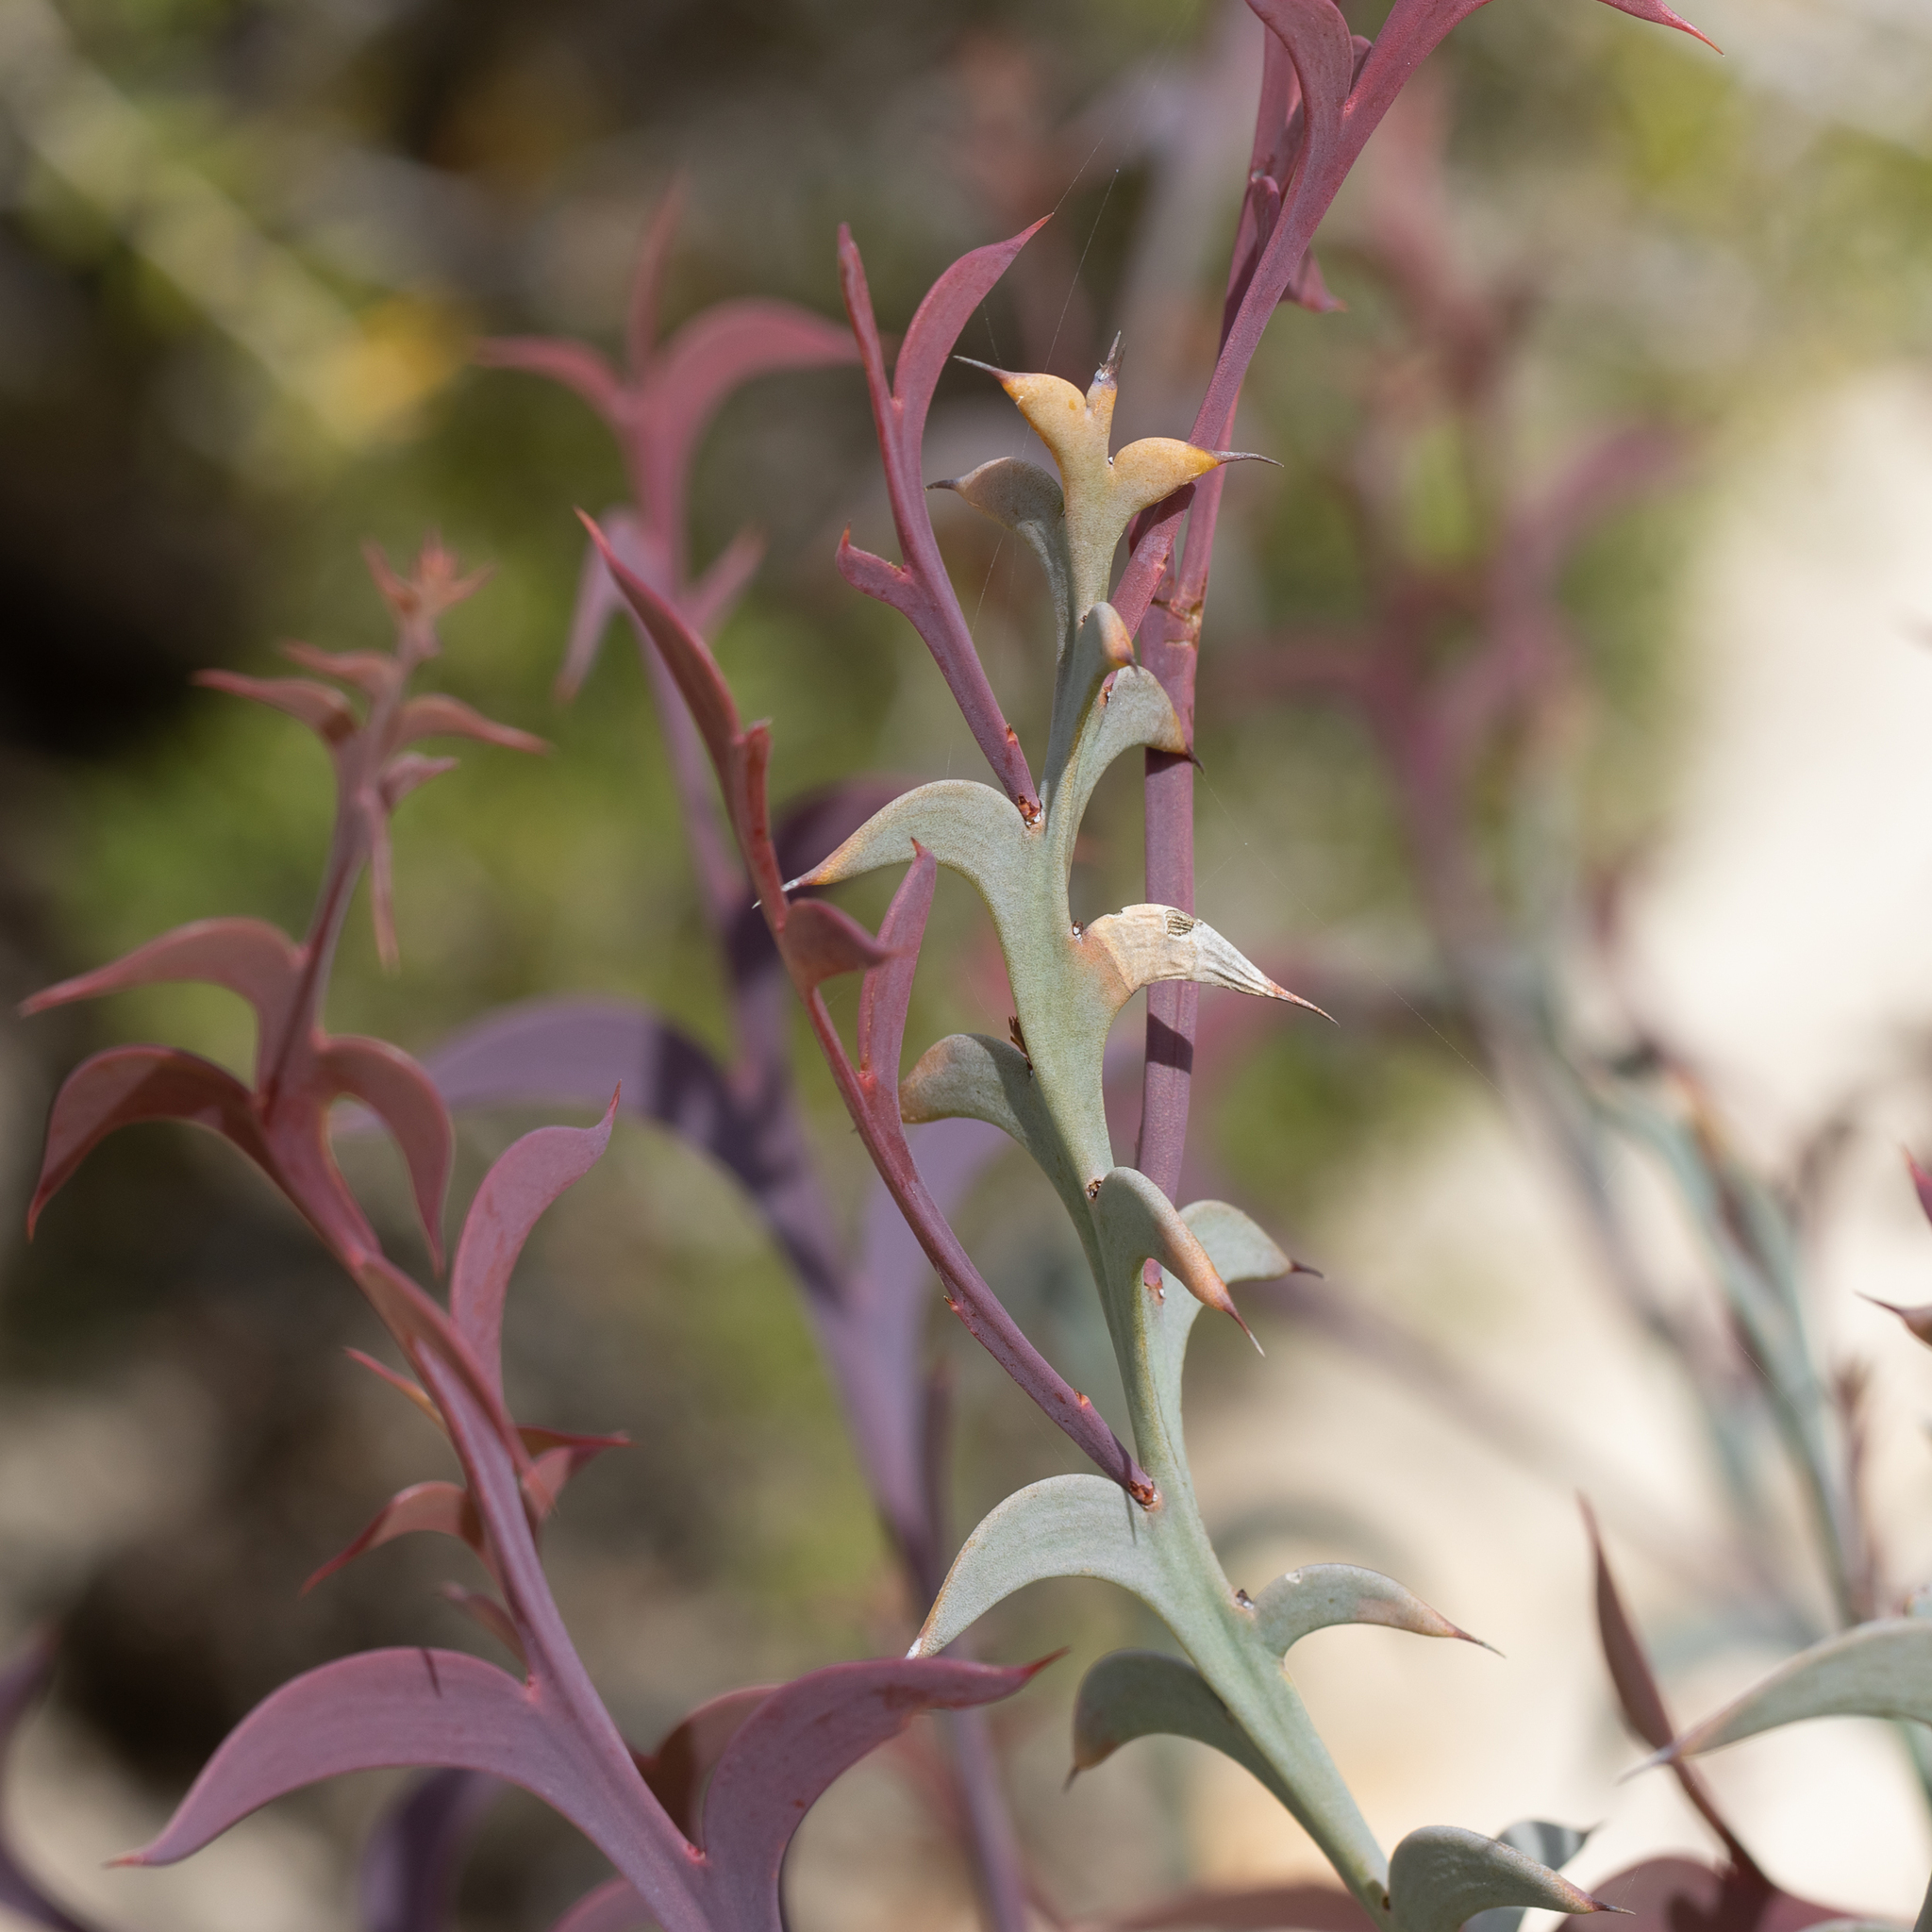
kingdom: Plantae
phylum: Tracheophyta
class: Magnoliopsida
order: Fabales
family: Fabaceae
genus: Daviesia
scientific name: Daviesia dilatata
